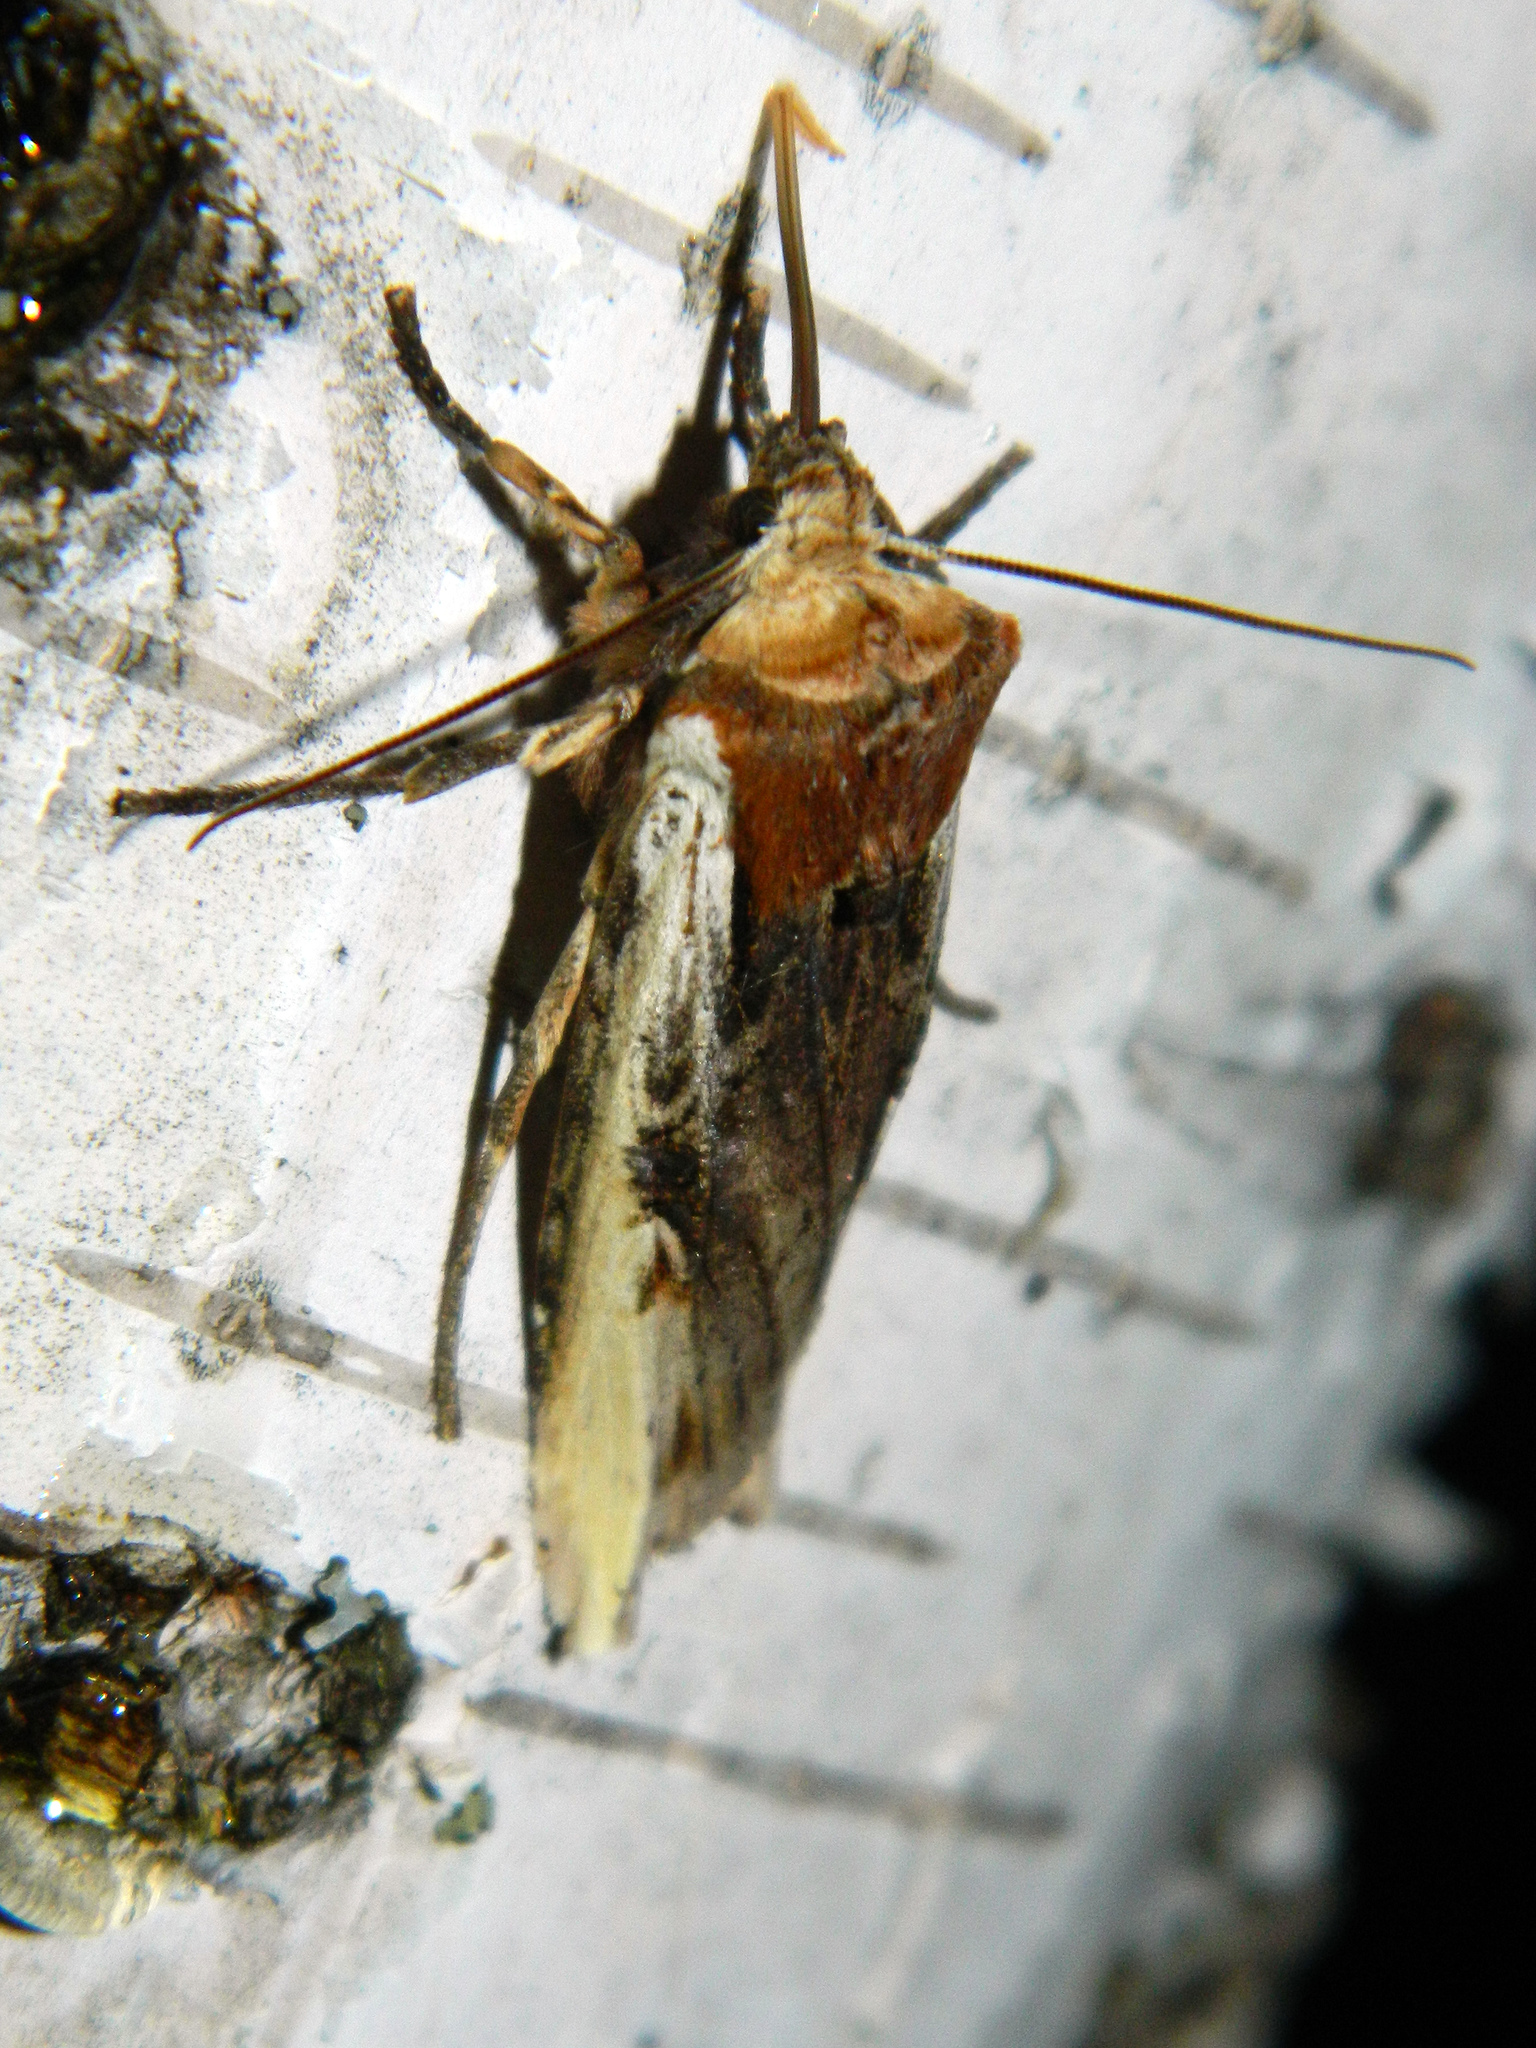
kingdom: Animalia
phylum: Arthropoda
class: Insecta
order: Lepidoptera
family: Noctuidae
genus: Xylena
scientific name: Xylena curvimacula
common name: Dot-and-dash swordgrass moth
